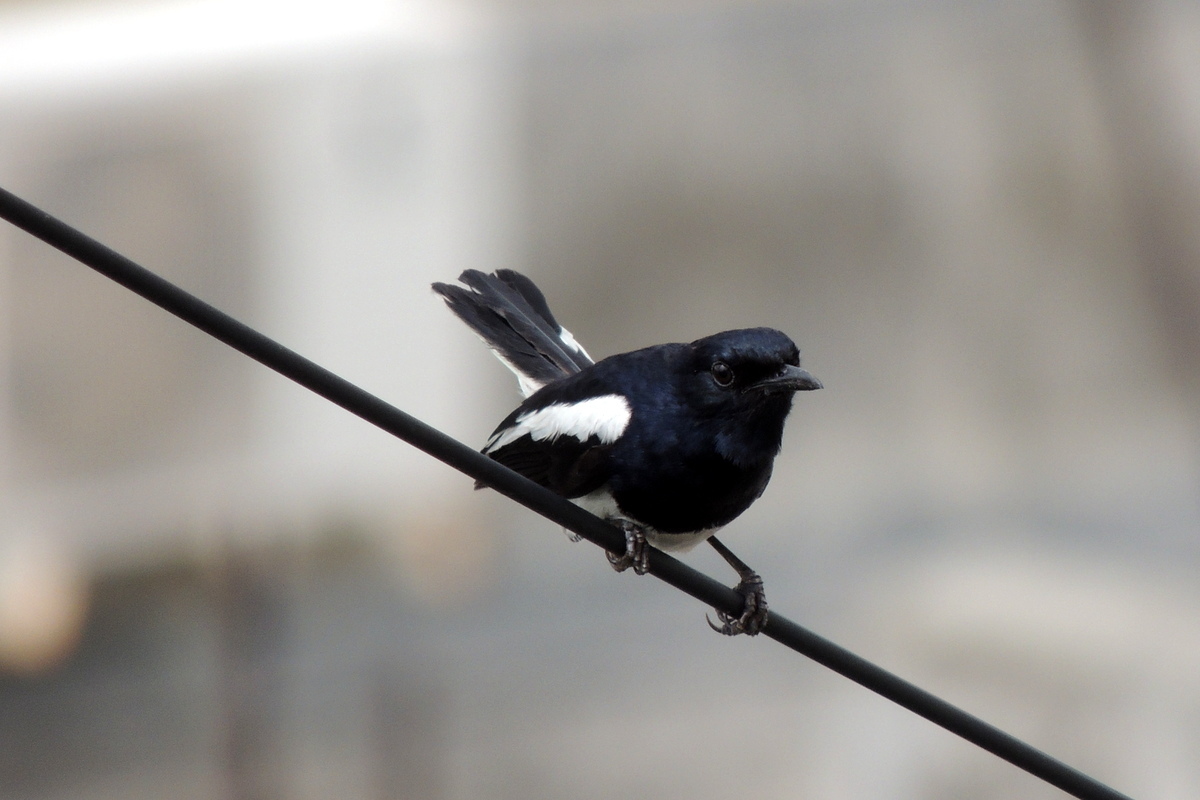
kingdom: Animalia
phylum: Chordata
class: Aves
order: Passeriformes
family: Muscicapidae
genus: Copsychus
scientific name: Copsychus saularis
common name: Oriental magpie-robin
